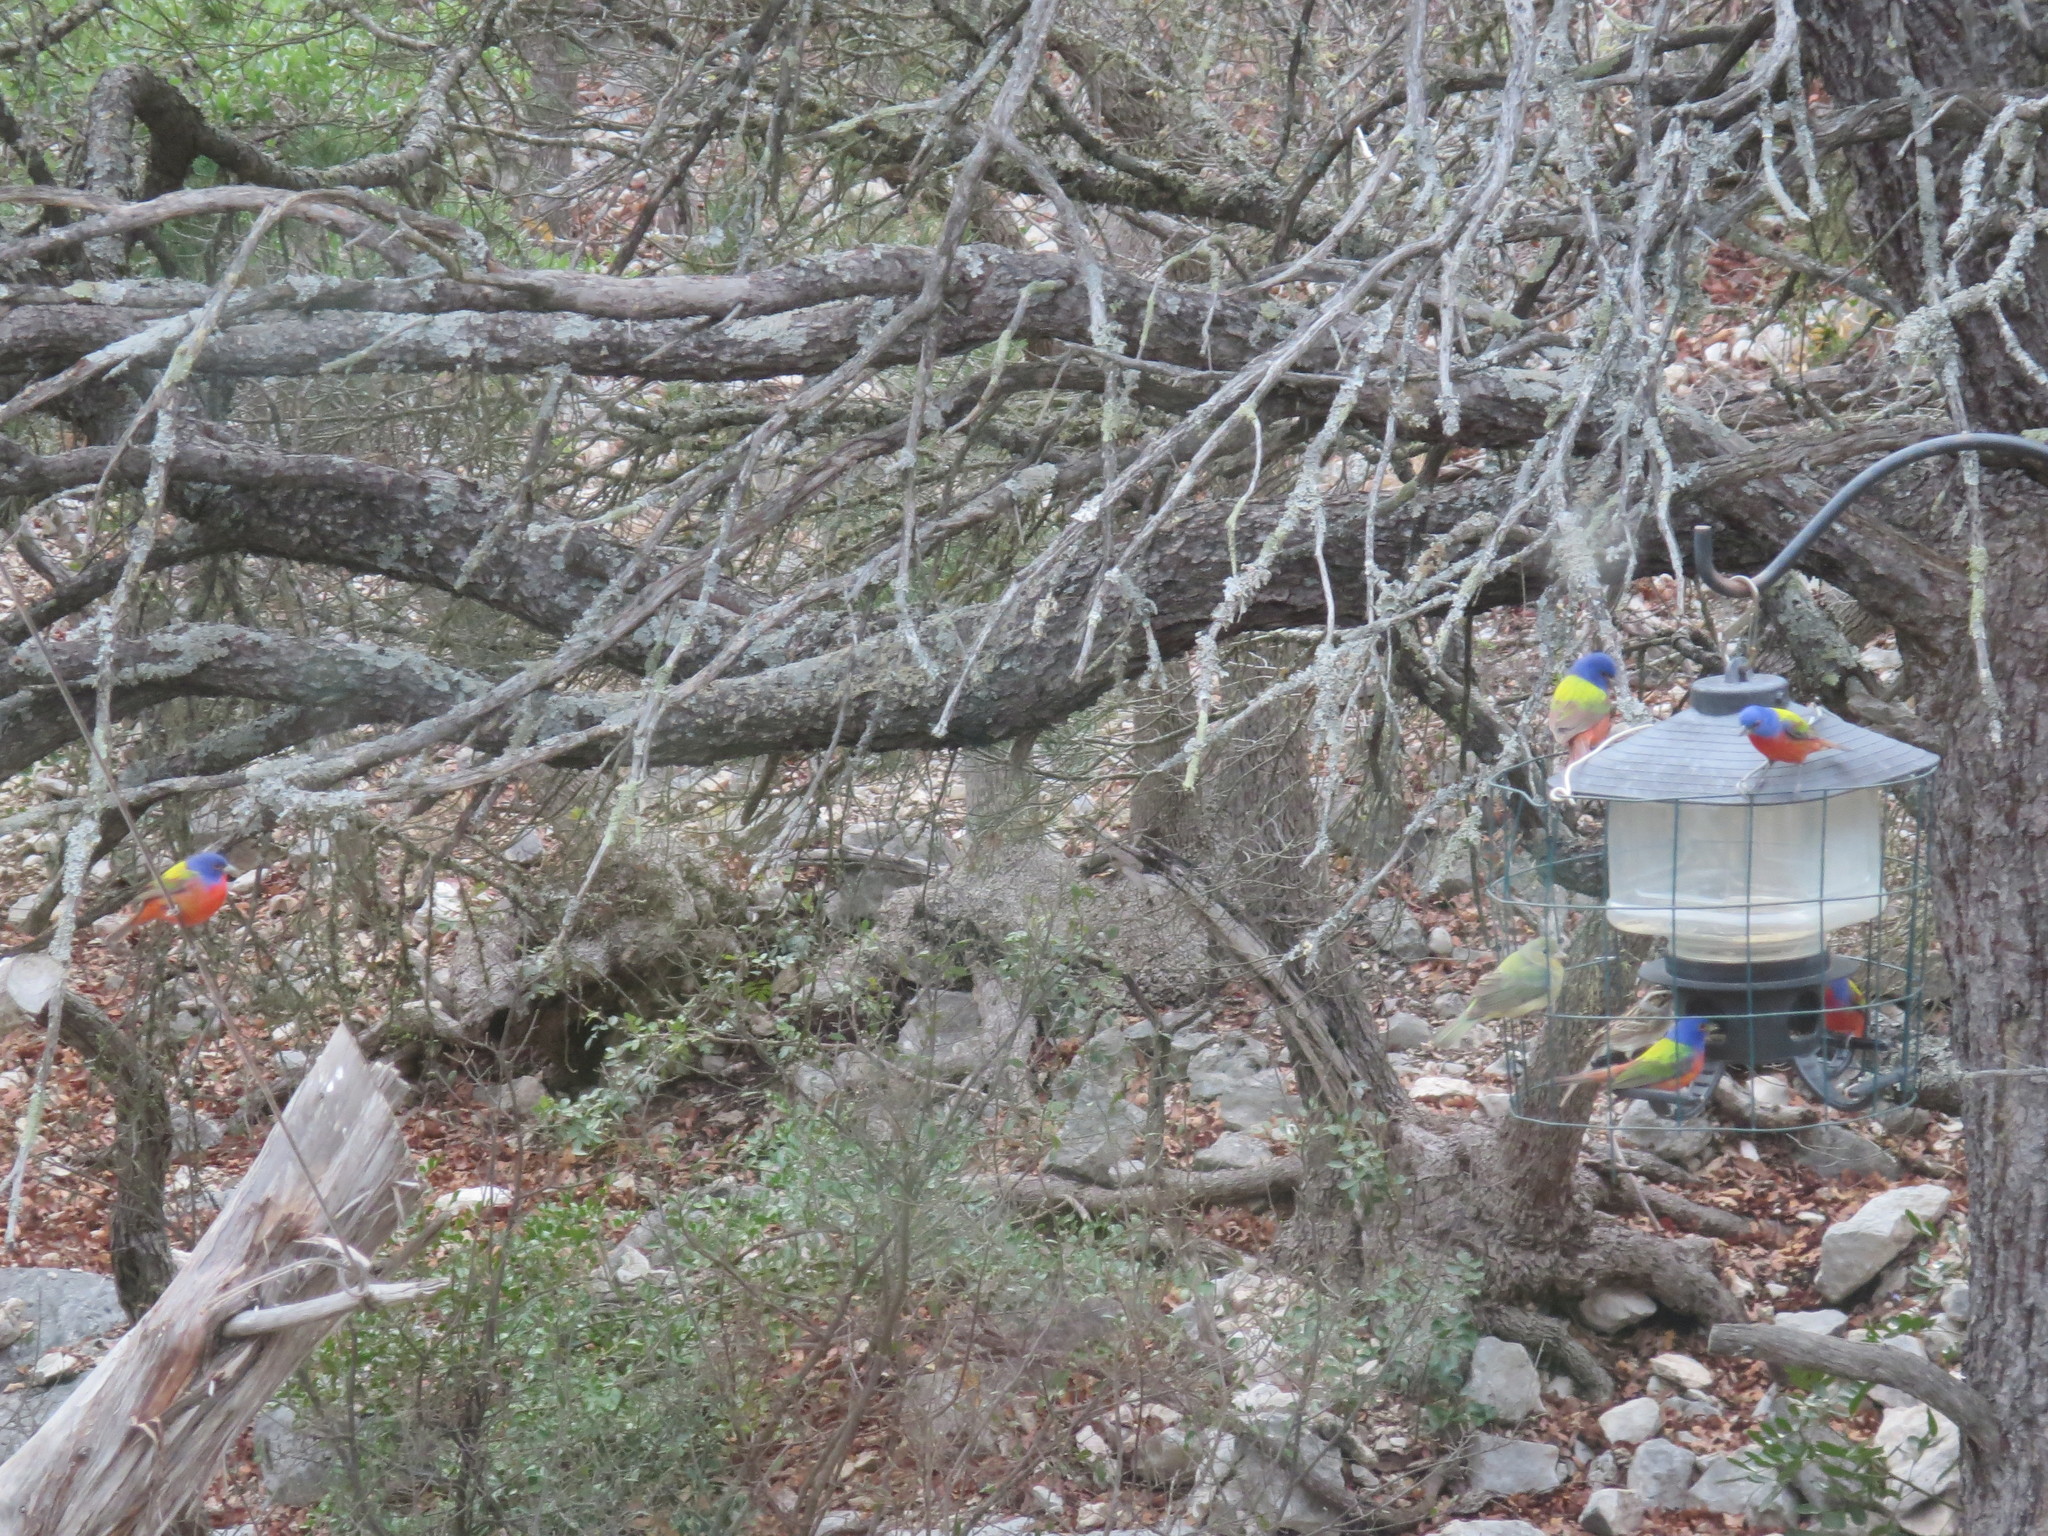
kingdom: Animalia
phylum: Chordata
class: Aves
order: Passeriformes
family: Cardinalidae
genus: Passerina
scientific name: Passerina ciris
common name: Painted bunting
